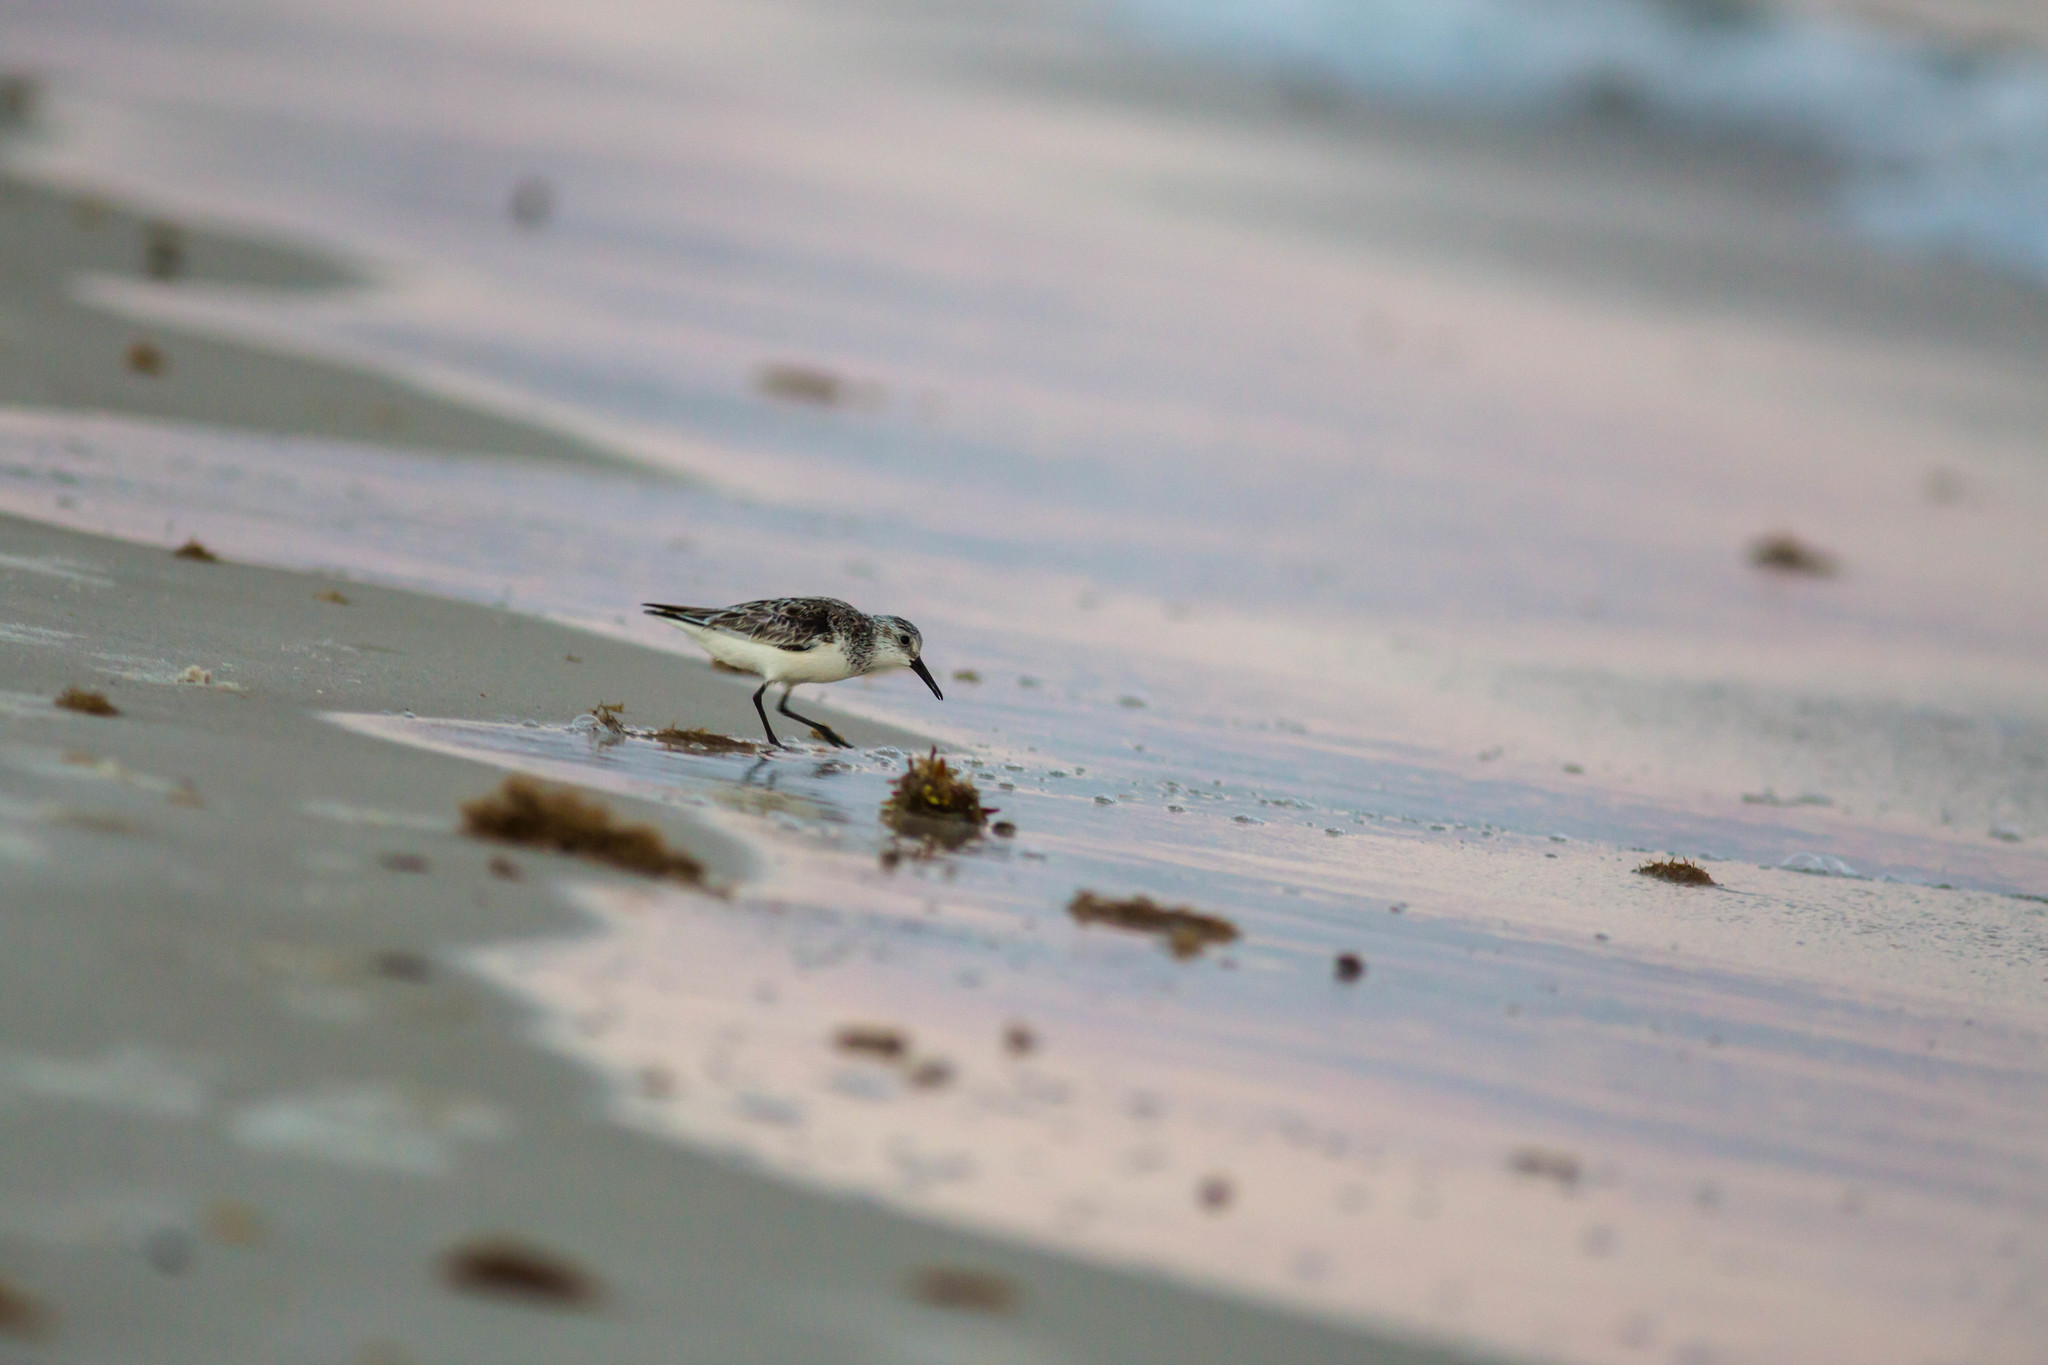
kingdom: Animalia
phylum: Chordata
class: Aves
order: Charadriiformes
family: Scolopacidae
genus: Calidris
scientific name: Calidris alba
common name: Sanderling
